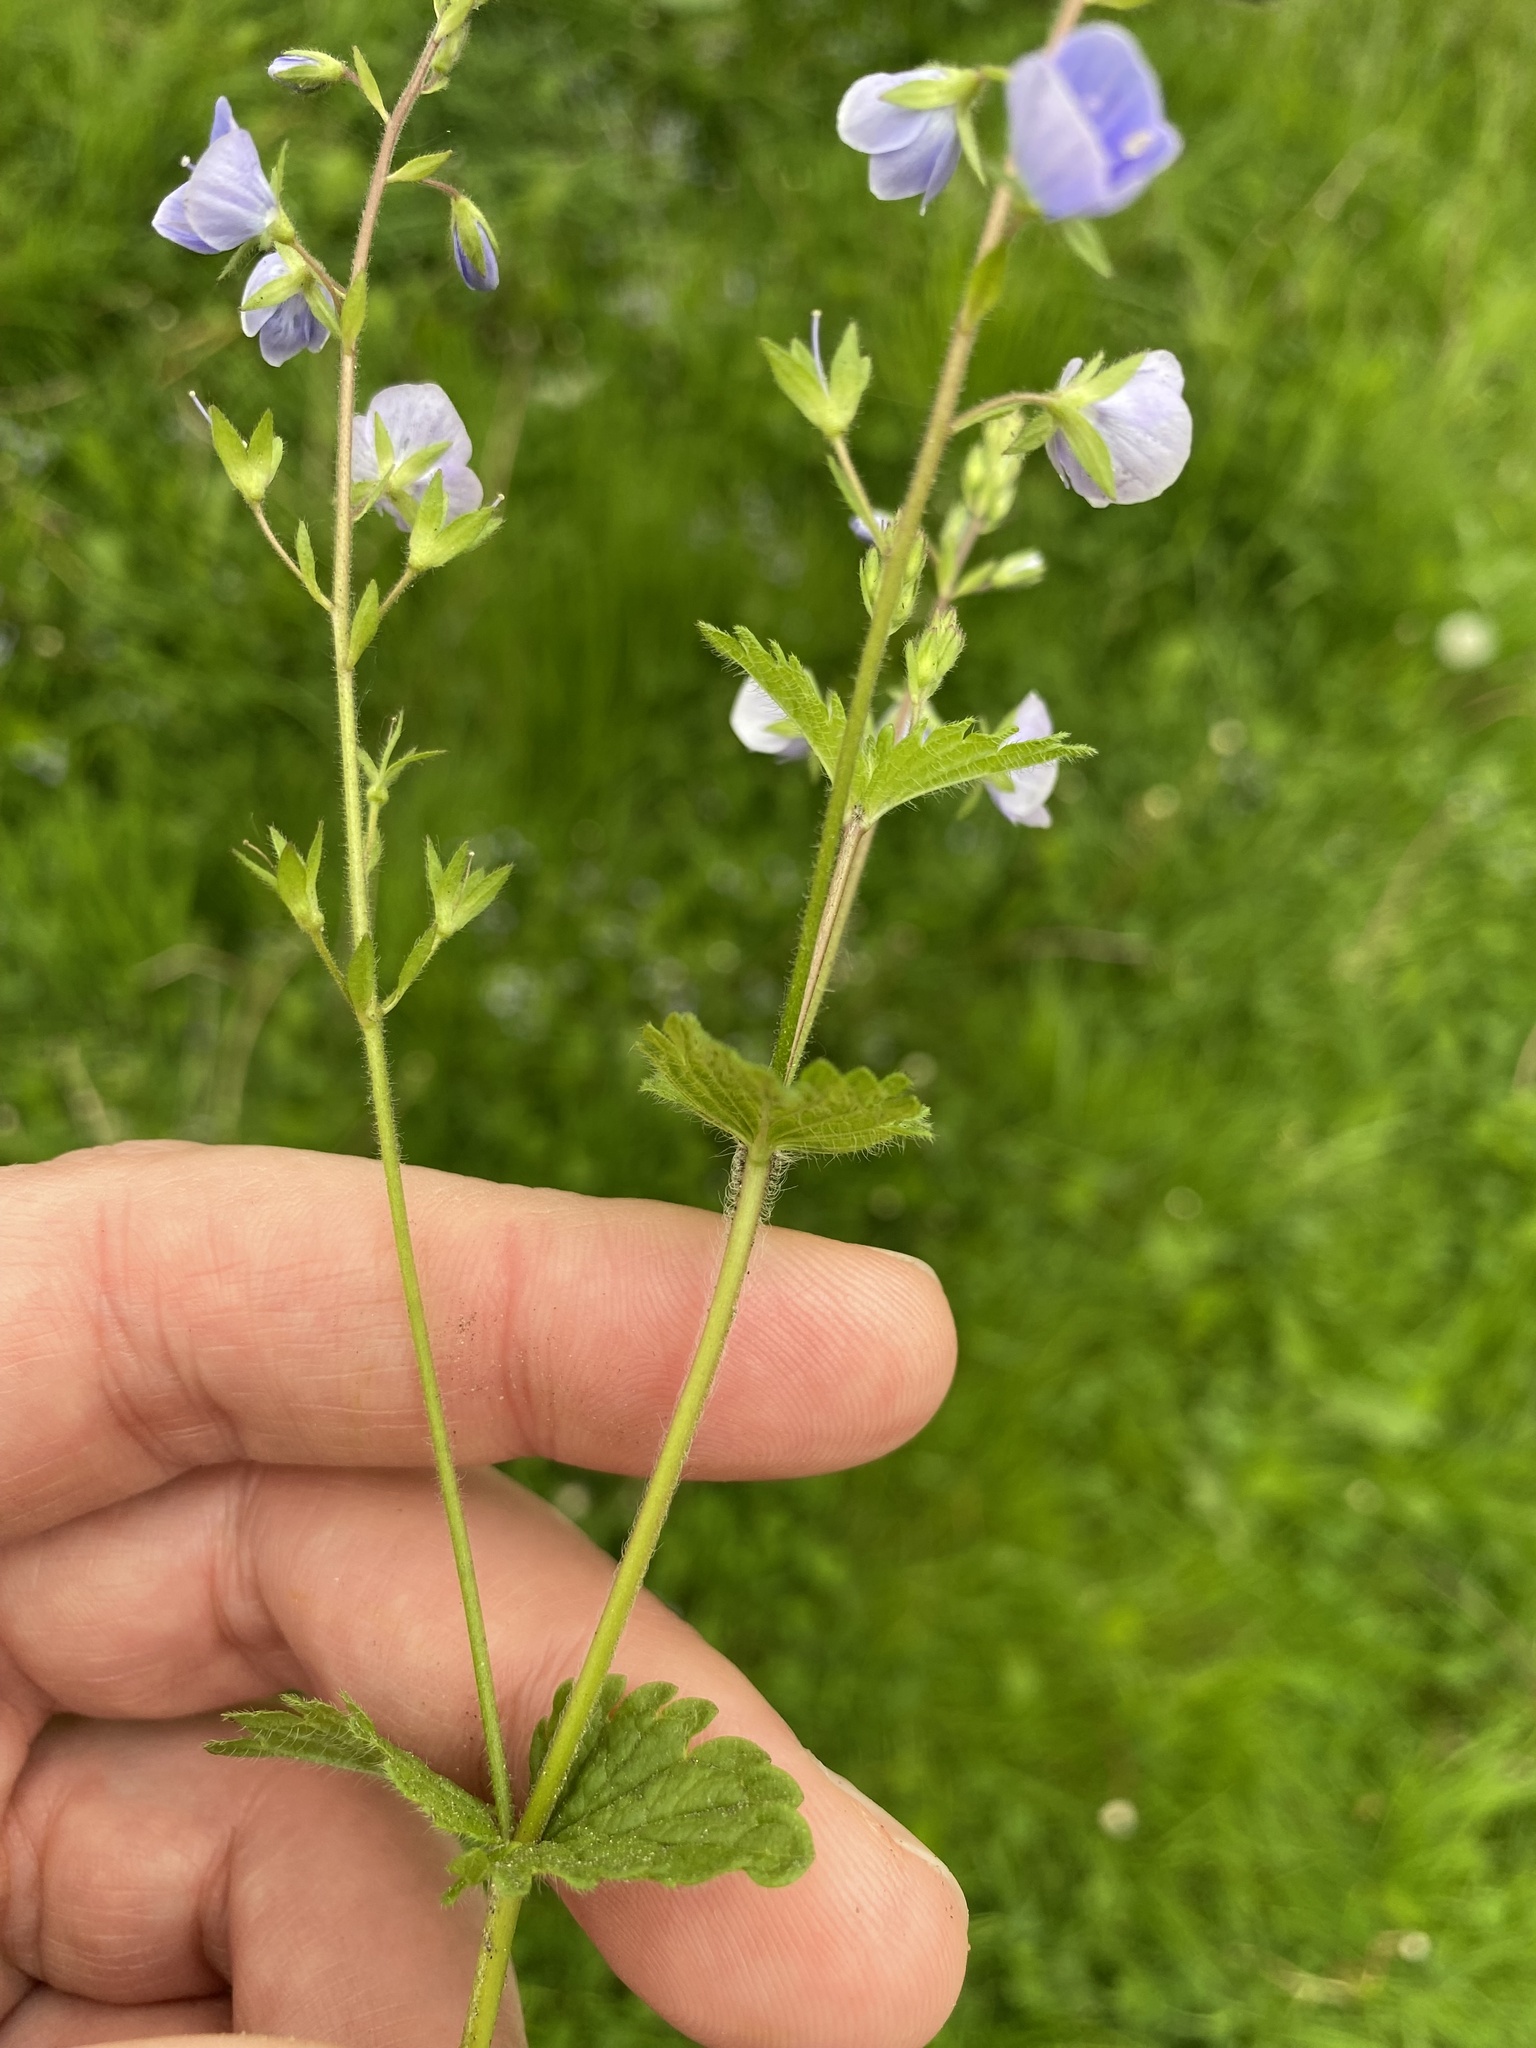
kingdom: Plantae
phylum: Tracheophyta
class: Magnoliopsida
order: Lamiales
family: Plantaginaceae
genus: Veronica
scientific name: Veronica chamaedrys
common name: Germander speedwell
